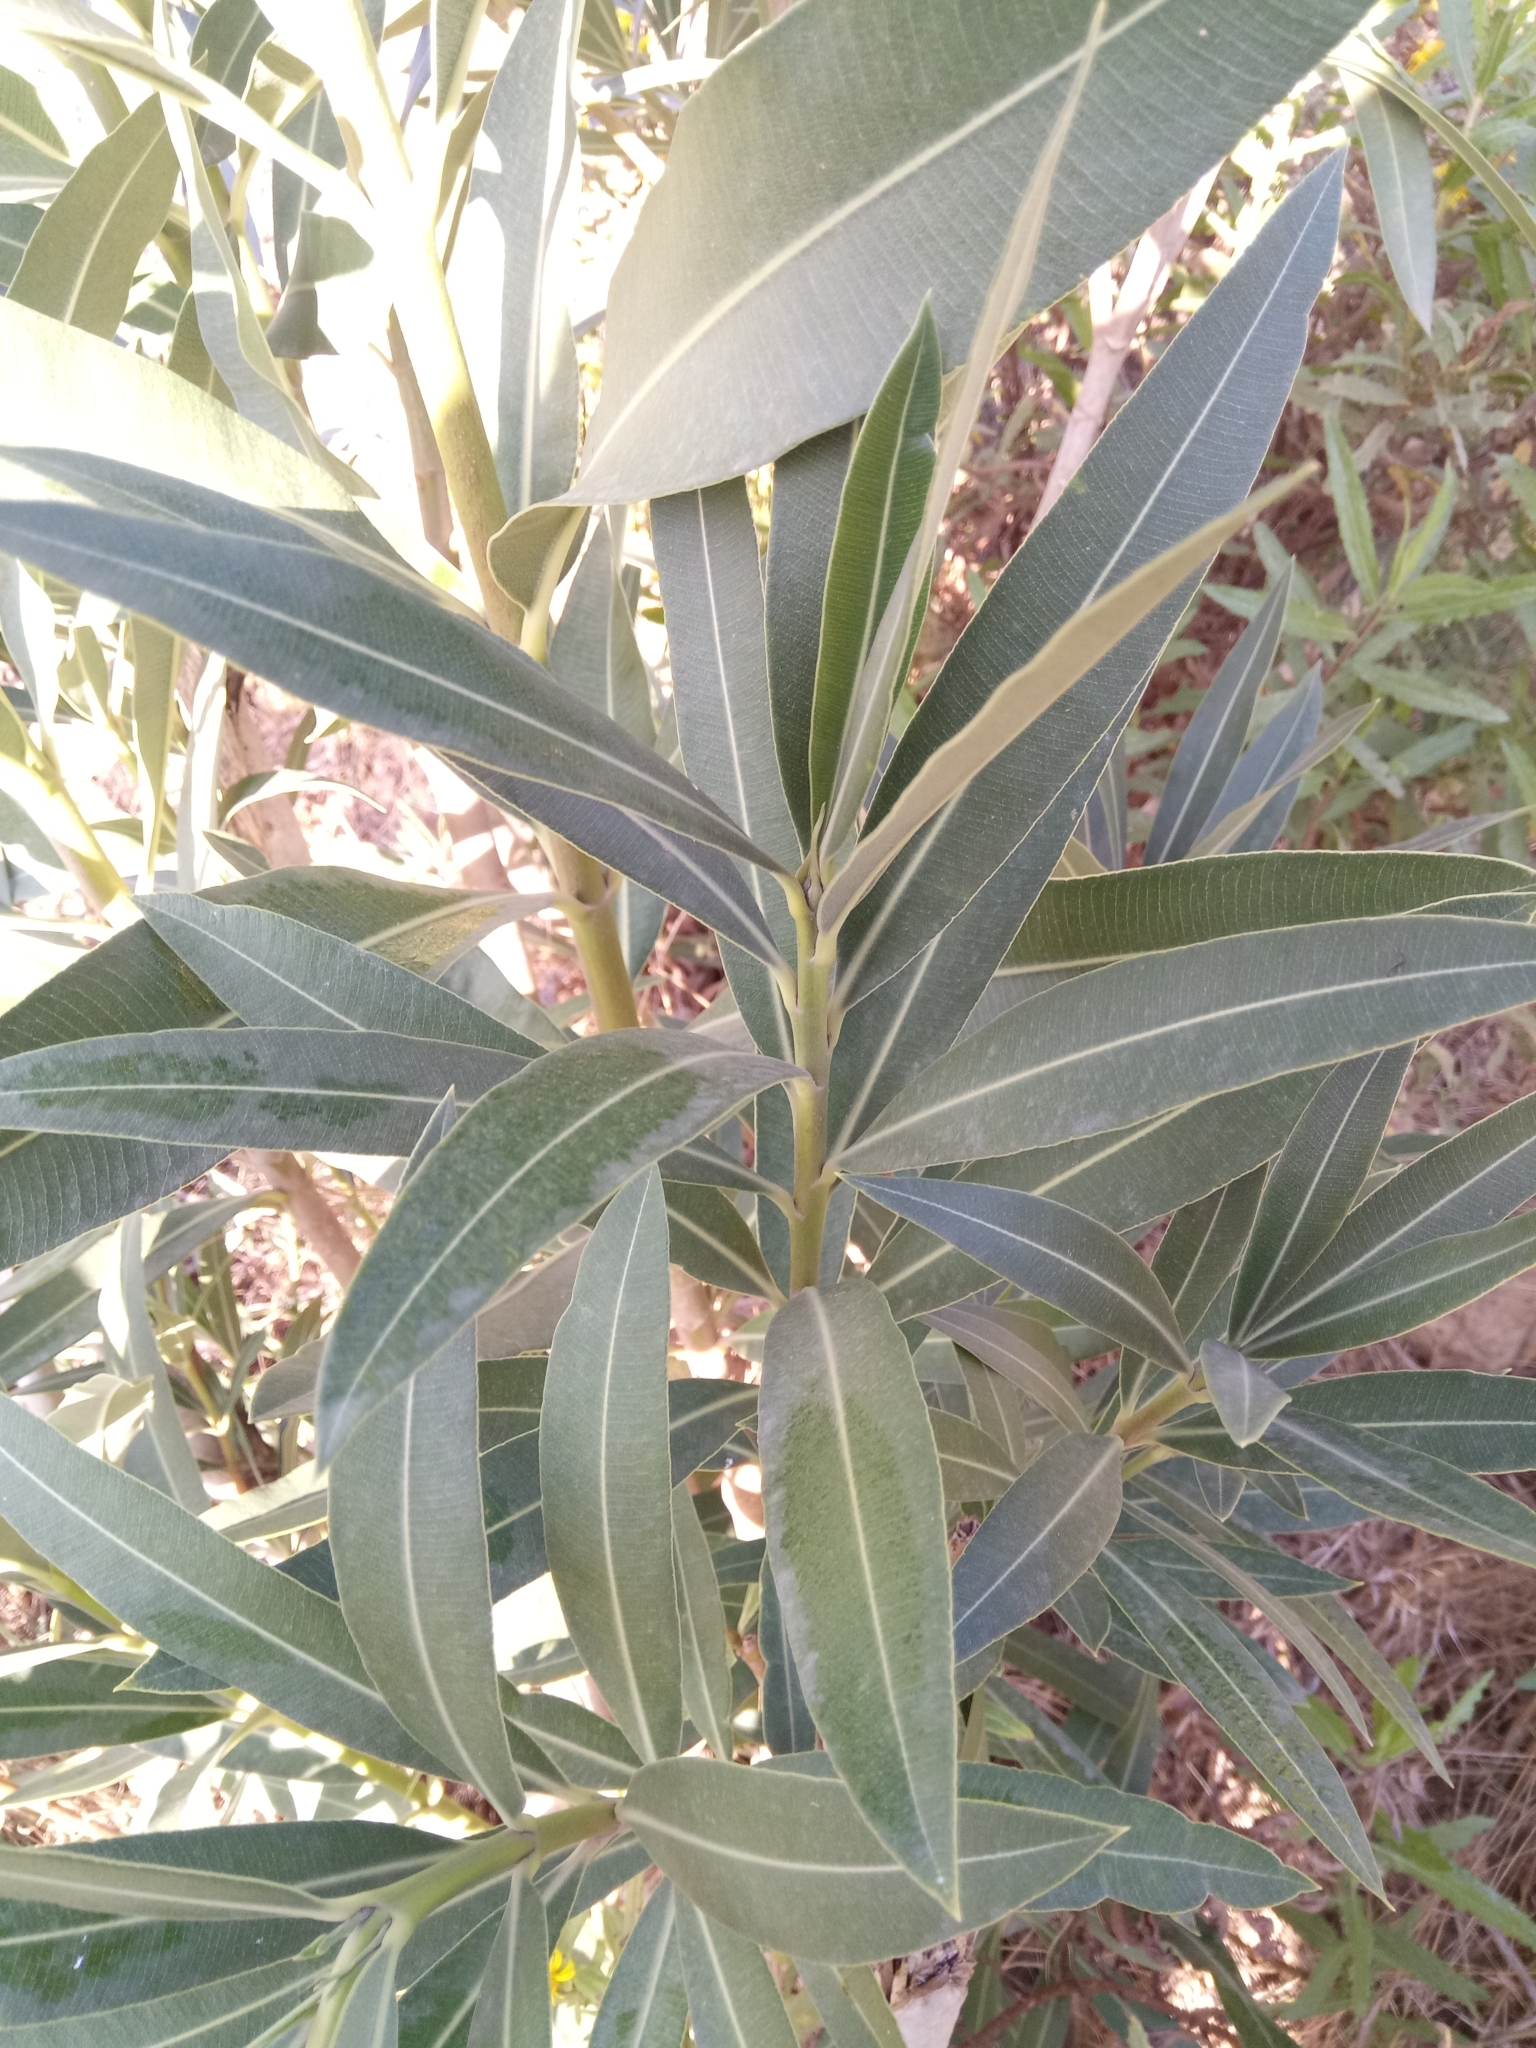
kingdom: Plantae
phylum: Tracheophyta
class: Magnoliopsida
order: Gentianales
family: Apocynaceae
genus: Nerium
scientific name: Nerium oleander
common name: Oleander
